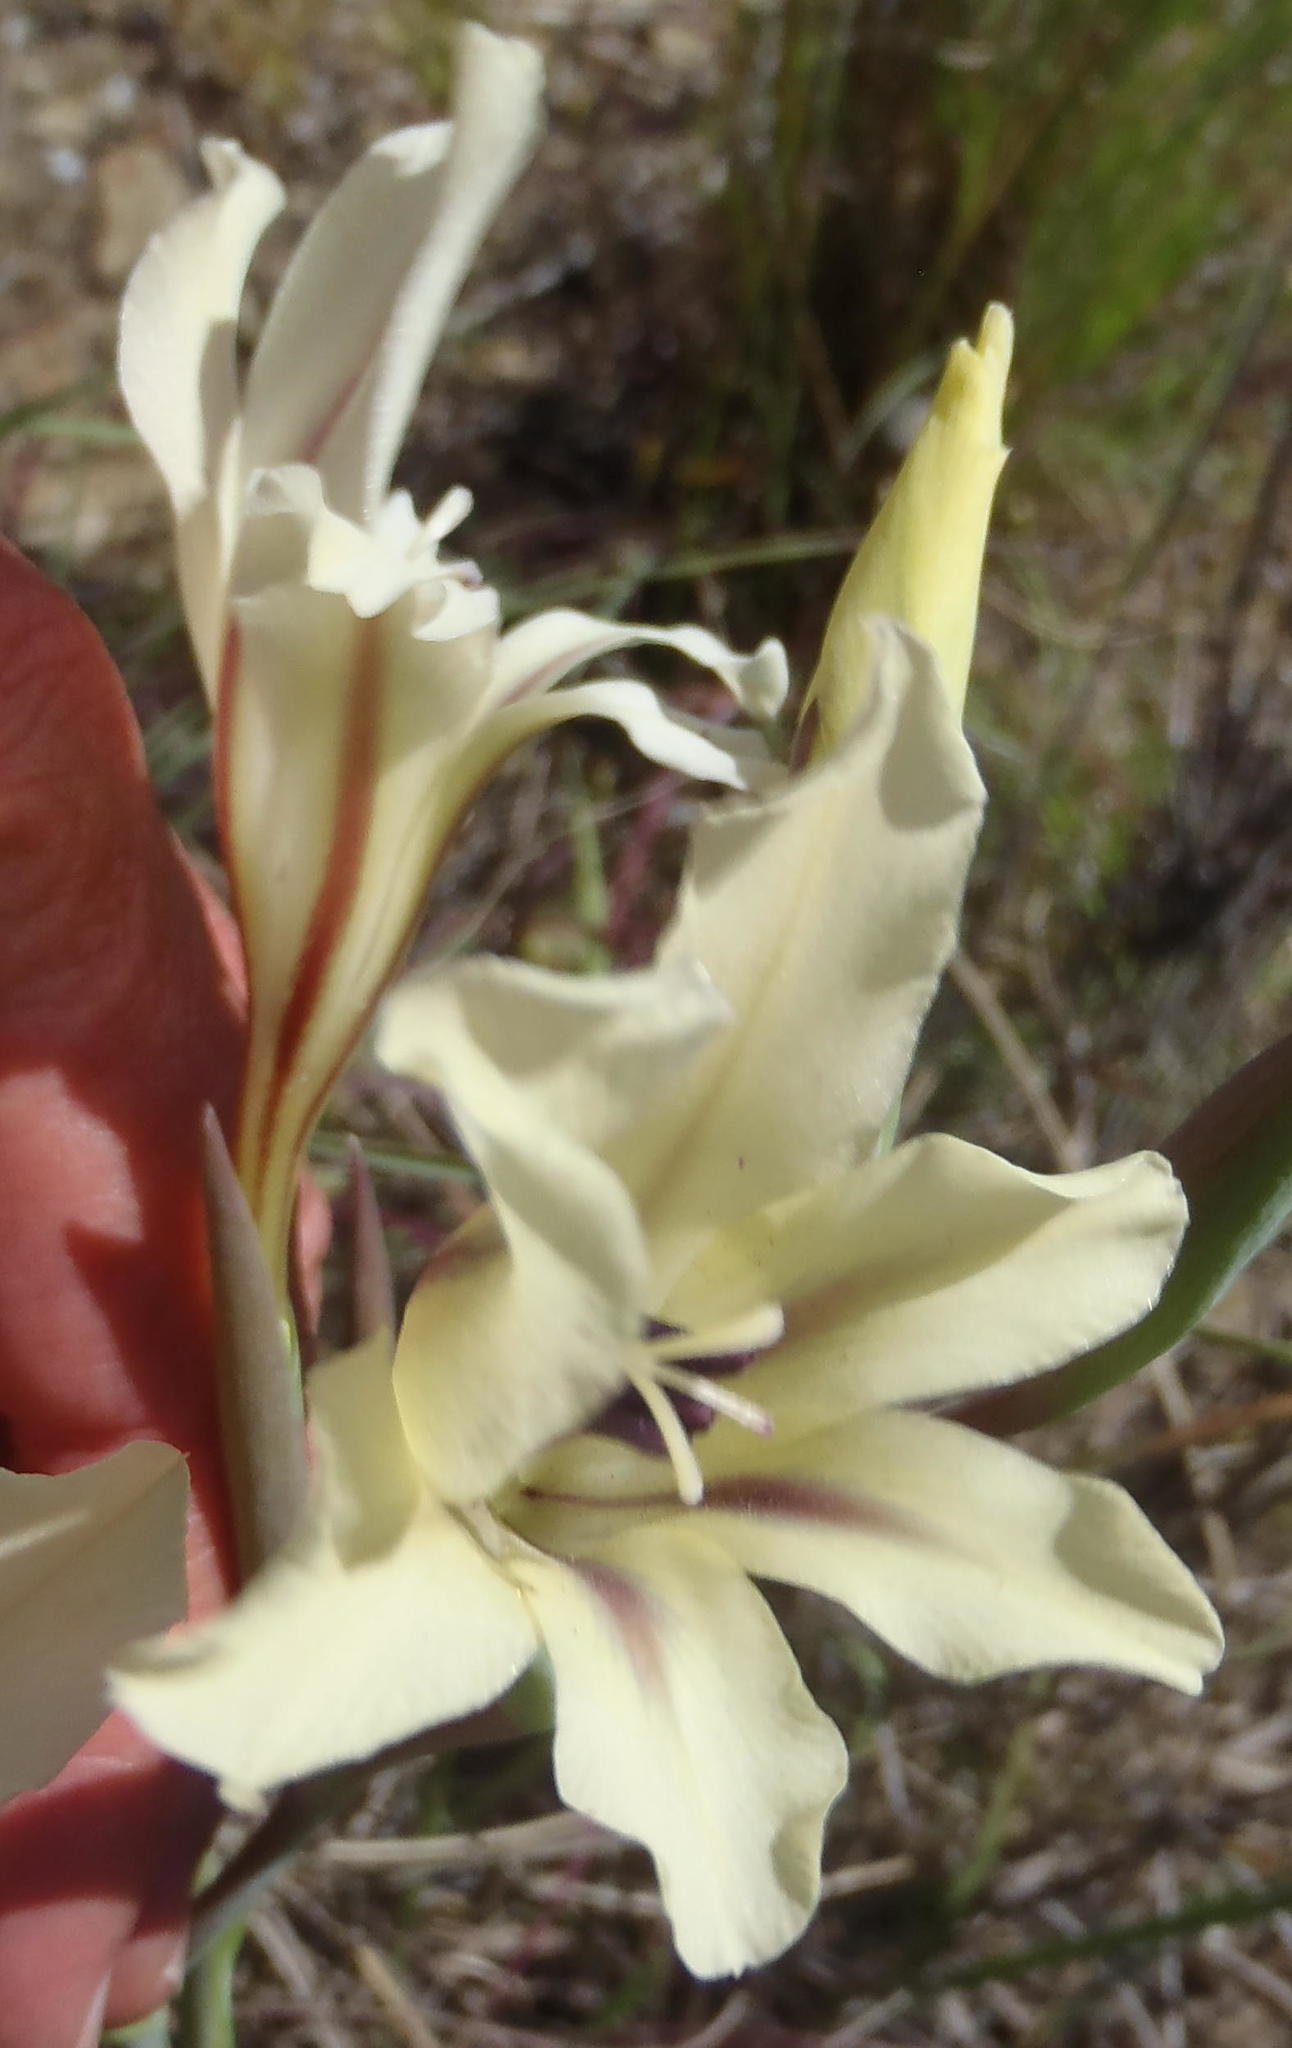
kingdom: Plantae
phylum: Tracheophyta
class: Liliopsida
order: Asparagales
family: Iridaceae
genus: Gladiolus
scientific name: Gladiolus floribundus
